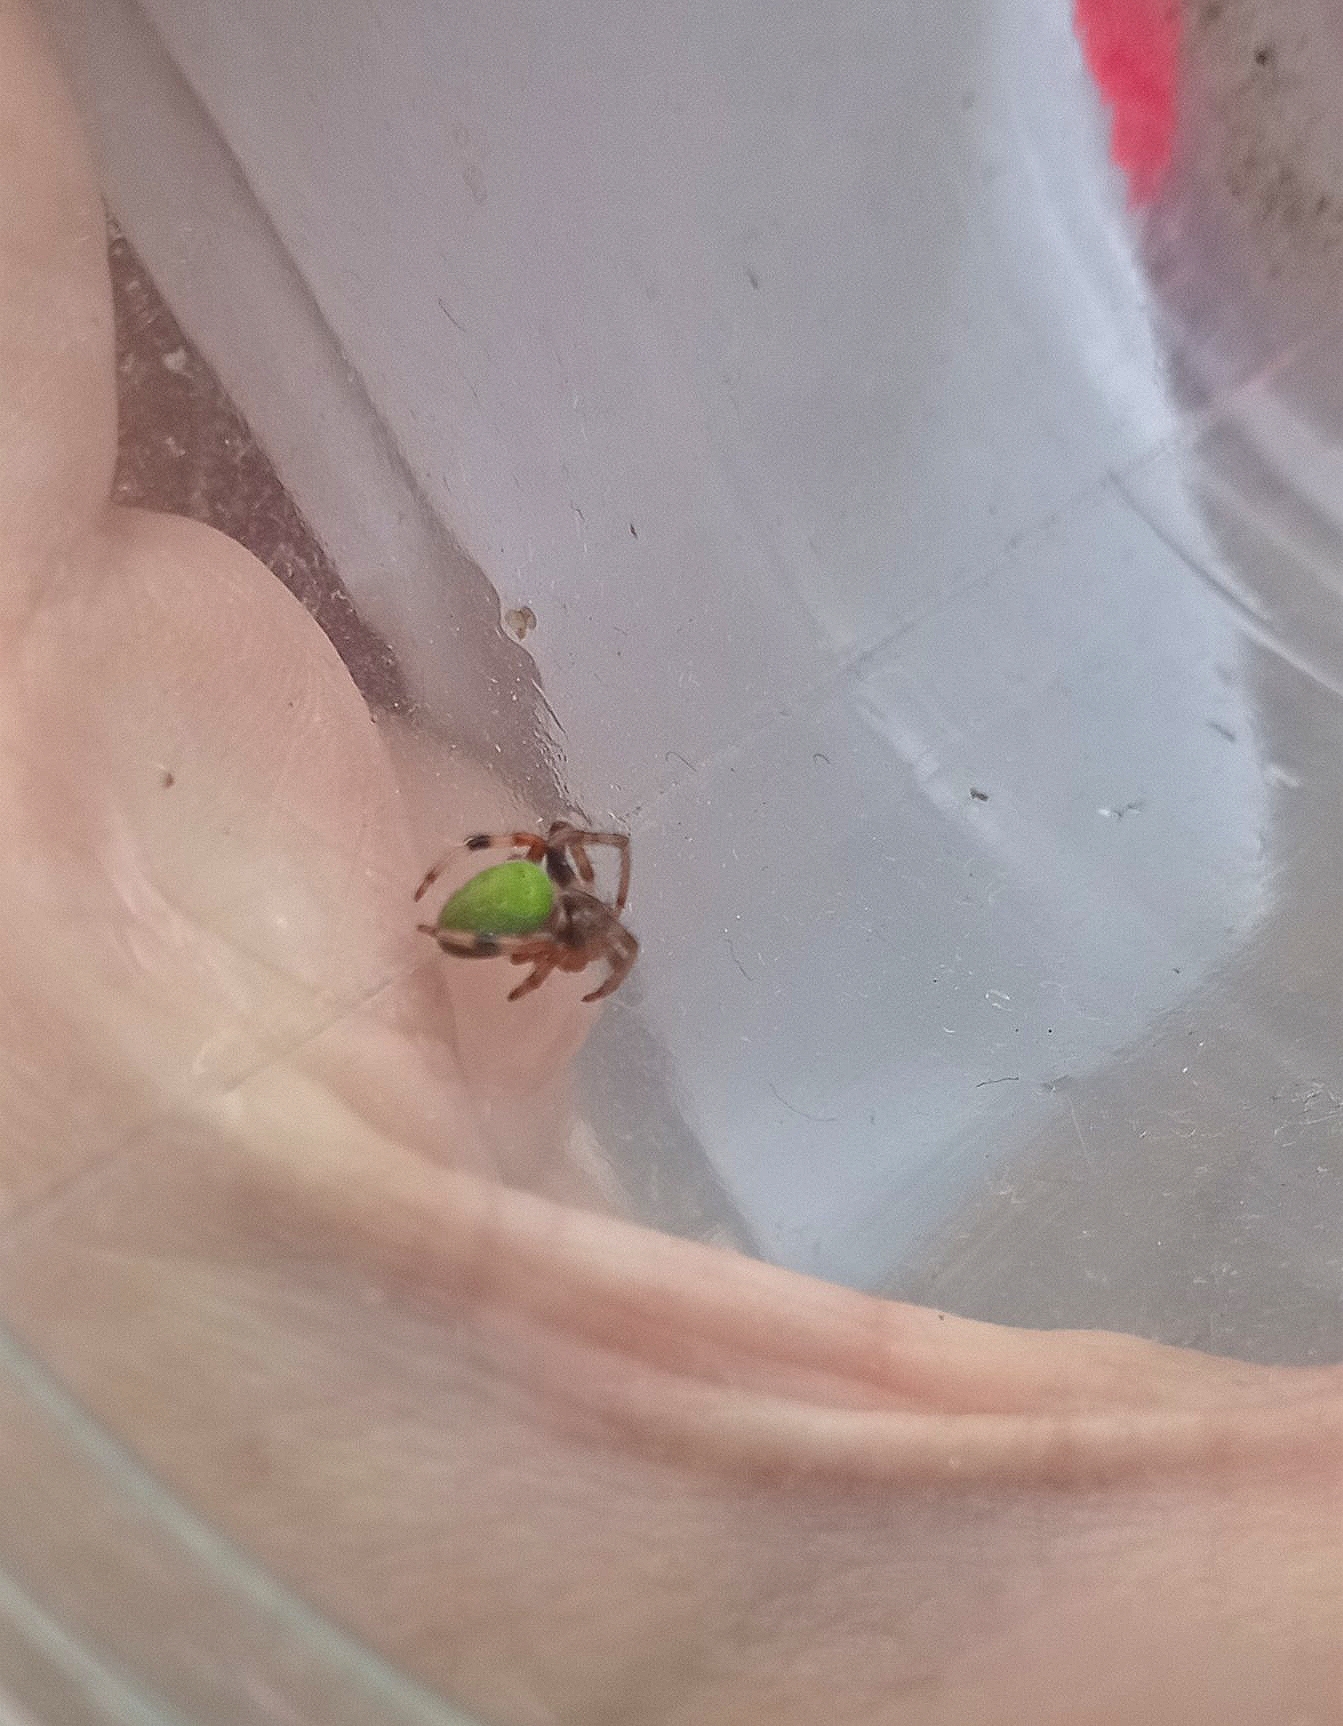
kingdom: Animalia
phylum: Arthropoda
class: Arachnida
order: Araneae
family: Araneidae
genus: Araneus
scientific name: Araneus lathyrinus
